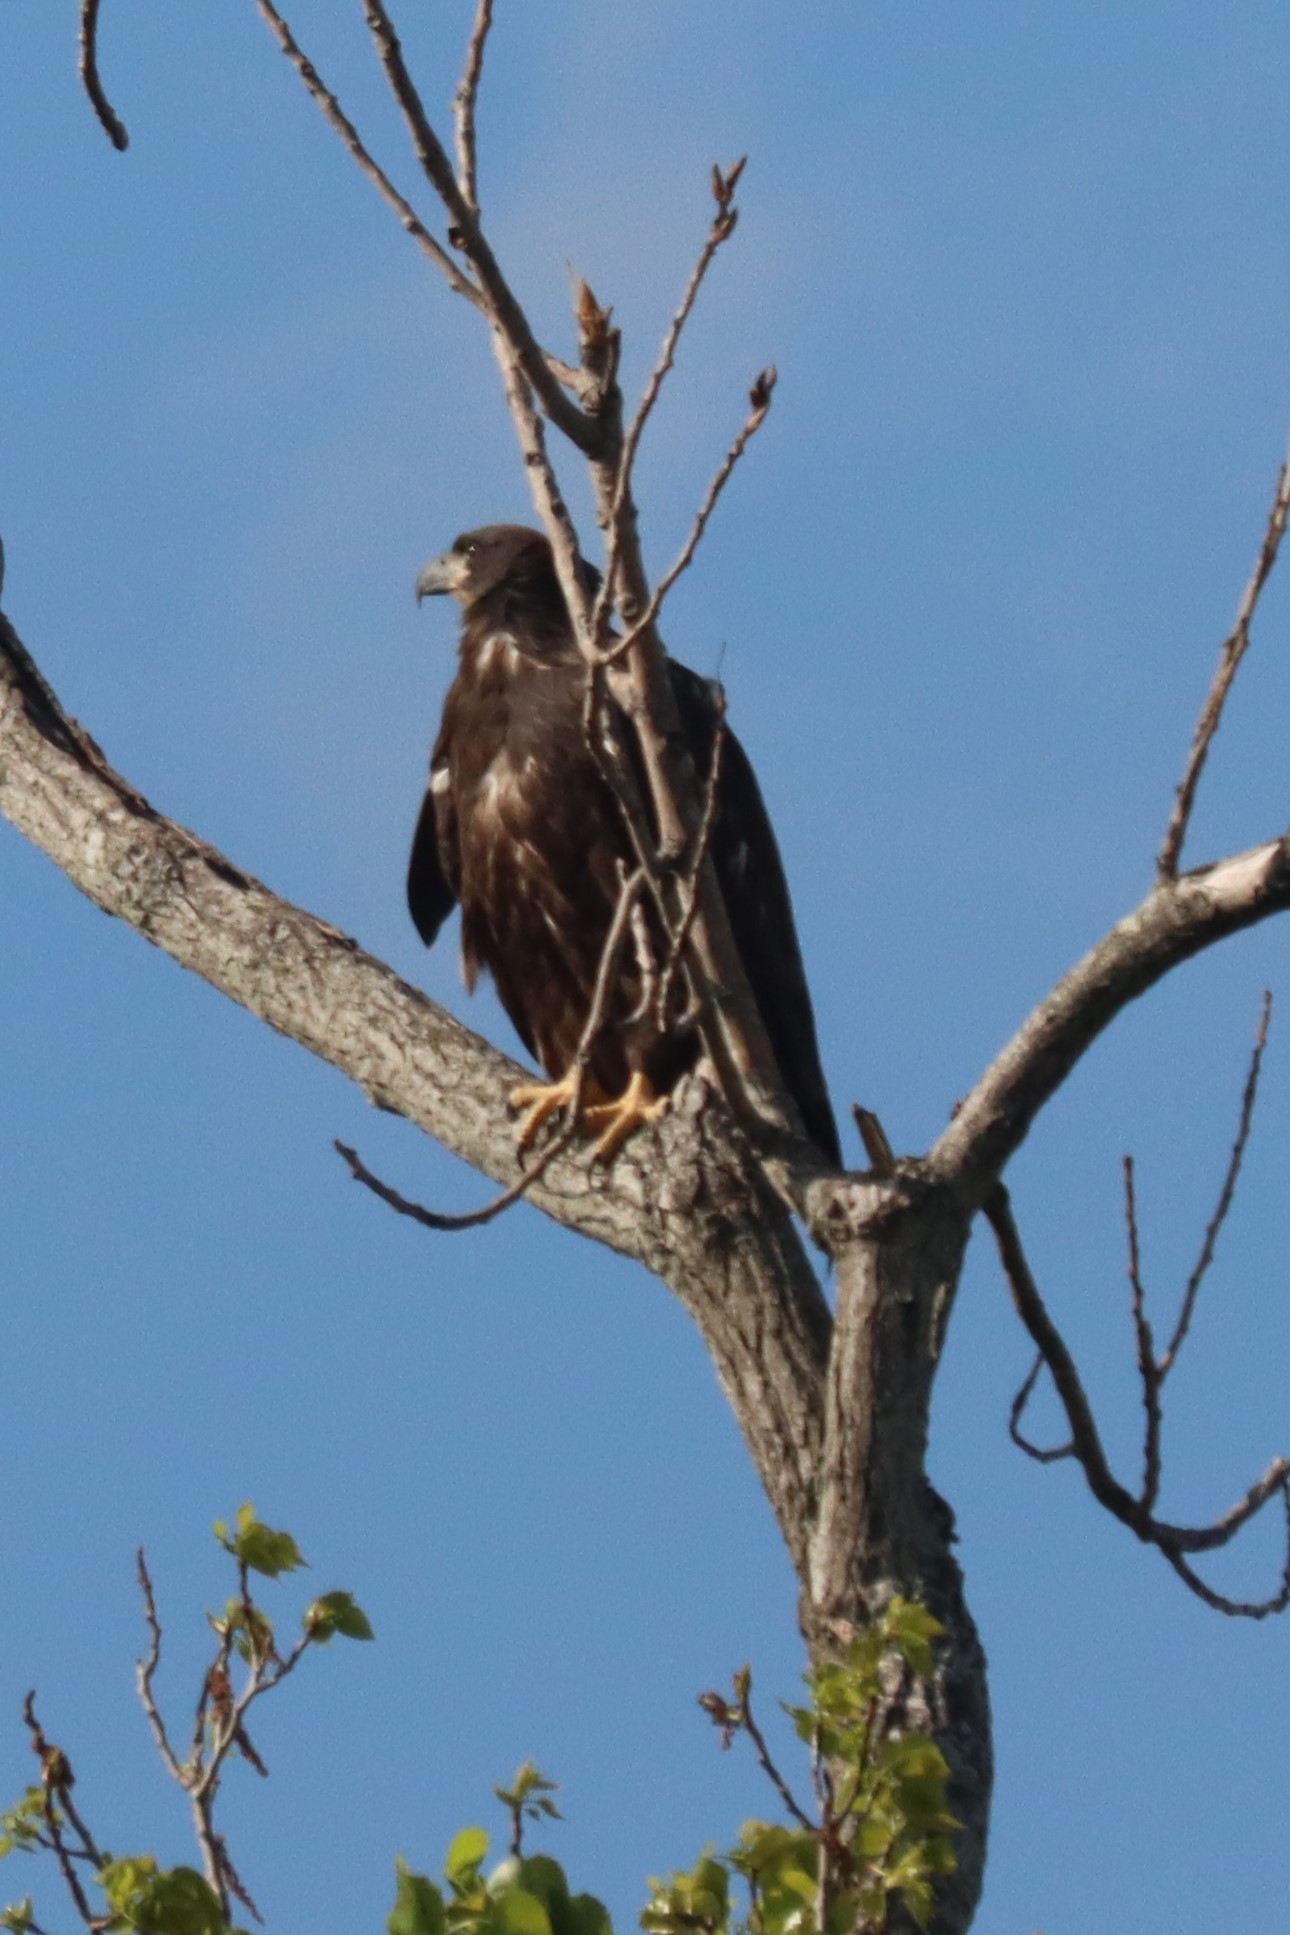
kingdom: Animalia
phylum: Chordata
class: Aves
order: Accipitriformes
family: Accipitridae
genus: Haliaeetus
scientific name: Haliaeetus leucocephalus
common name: Bald eagle
